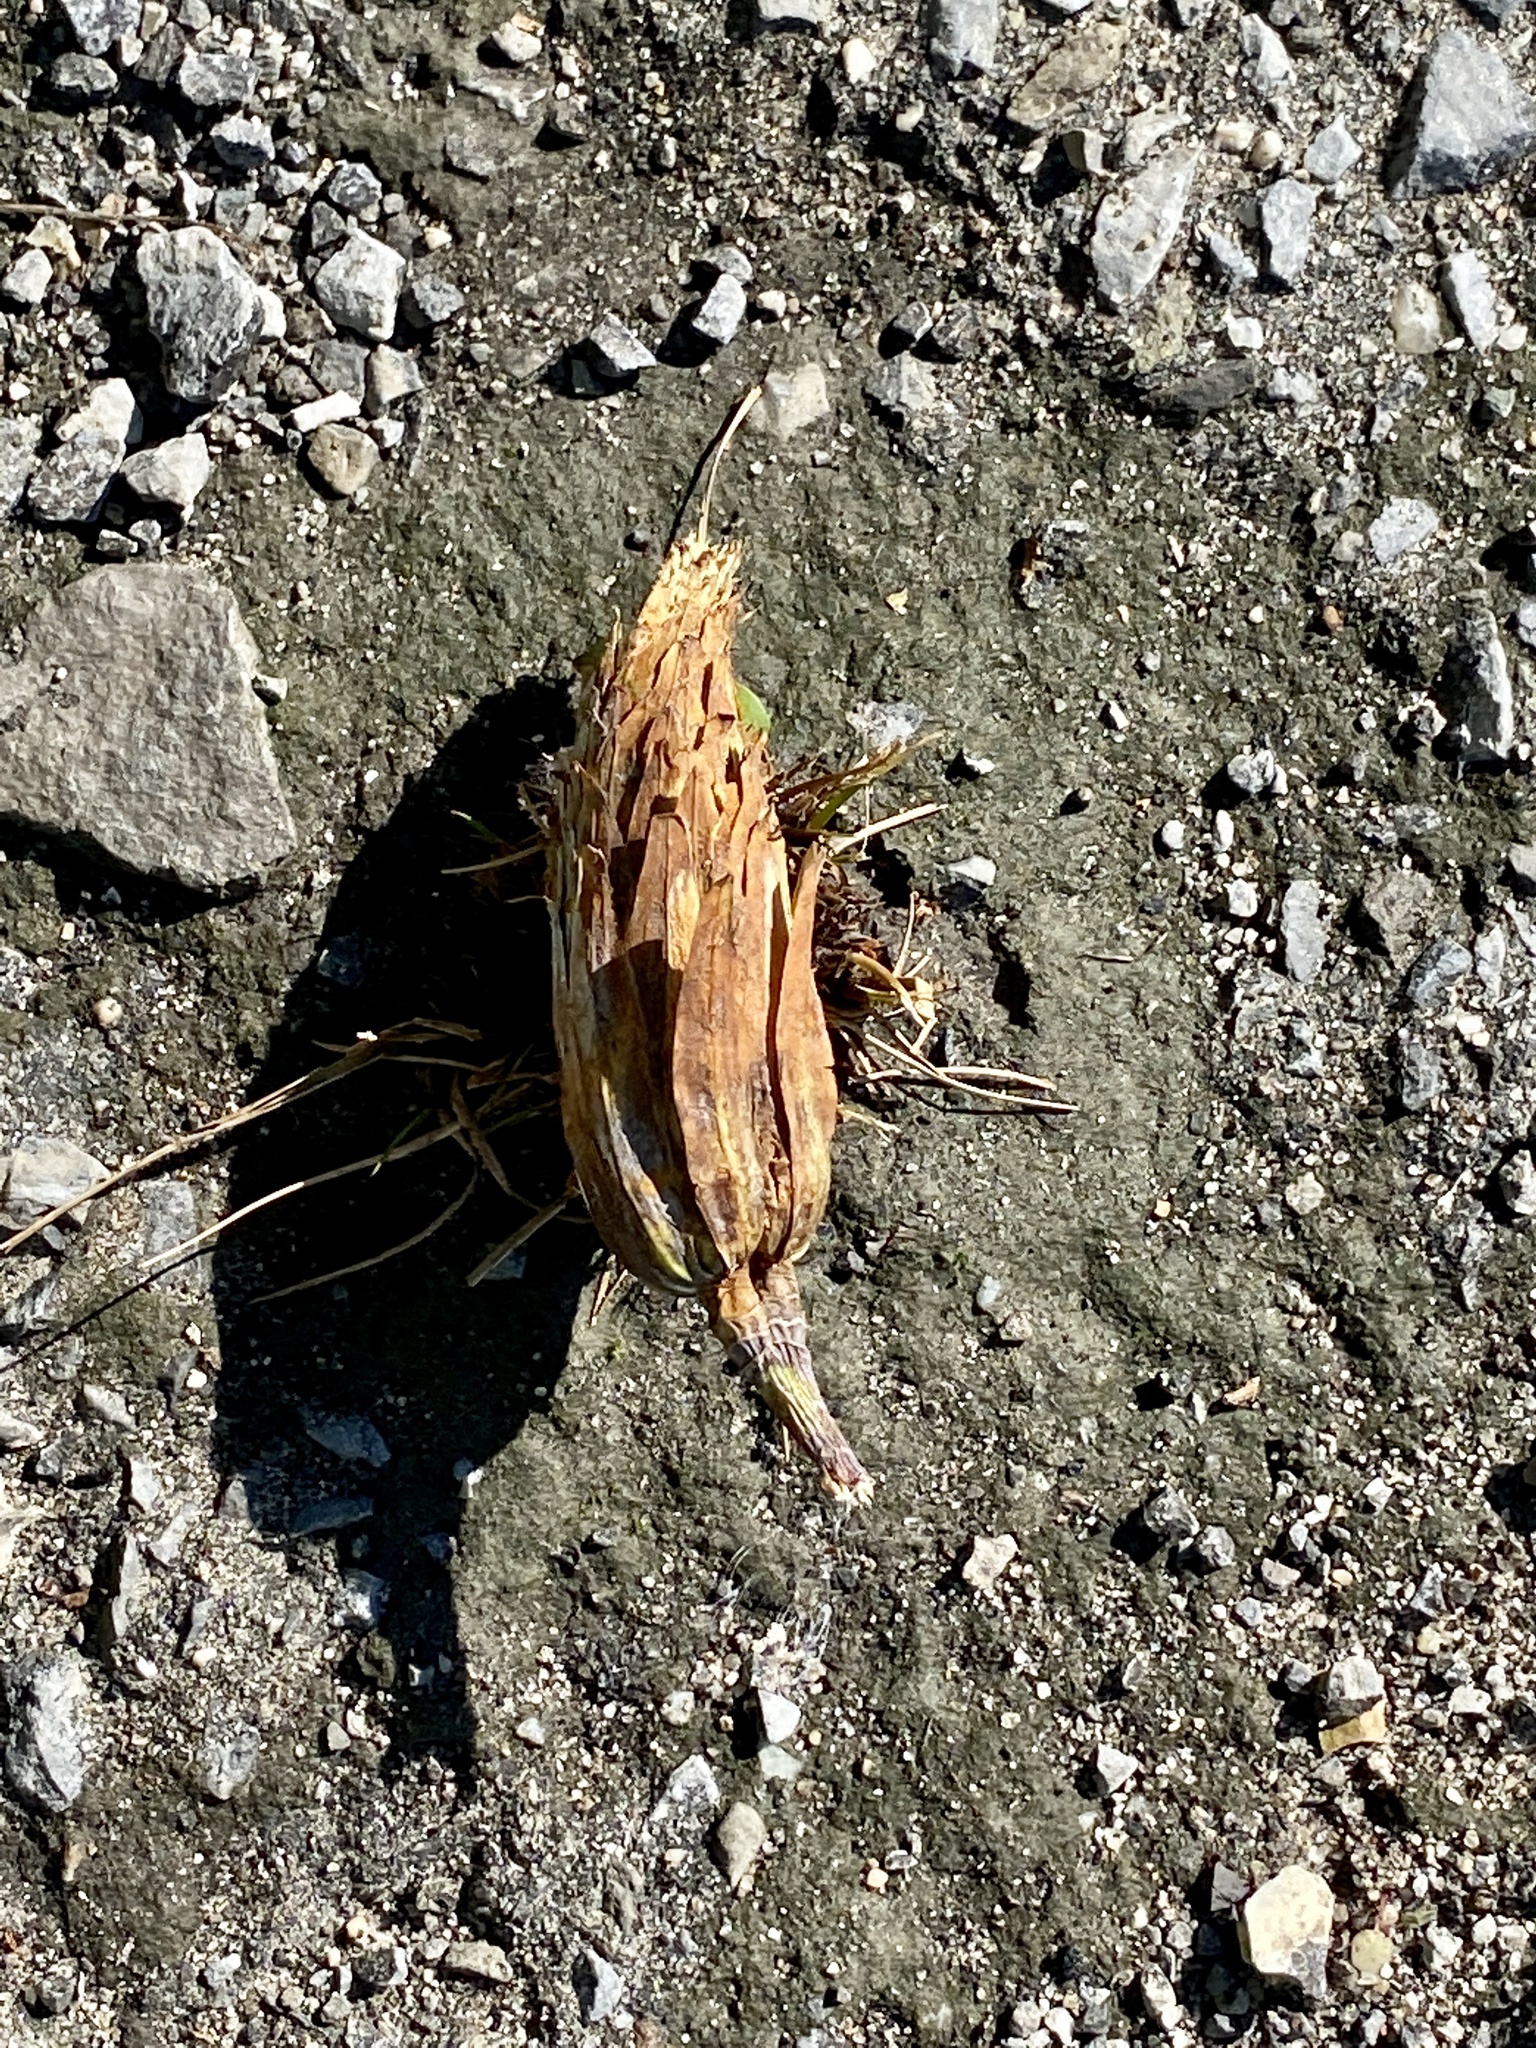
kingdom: Plantae
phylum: Tracheophyta
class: Magnoliopsida
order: Magnoliales
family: Magnoliaceae
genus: Liriodendron
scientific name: Liriodendron tulipifera
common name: Tulip tree
